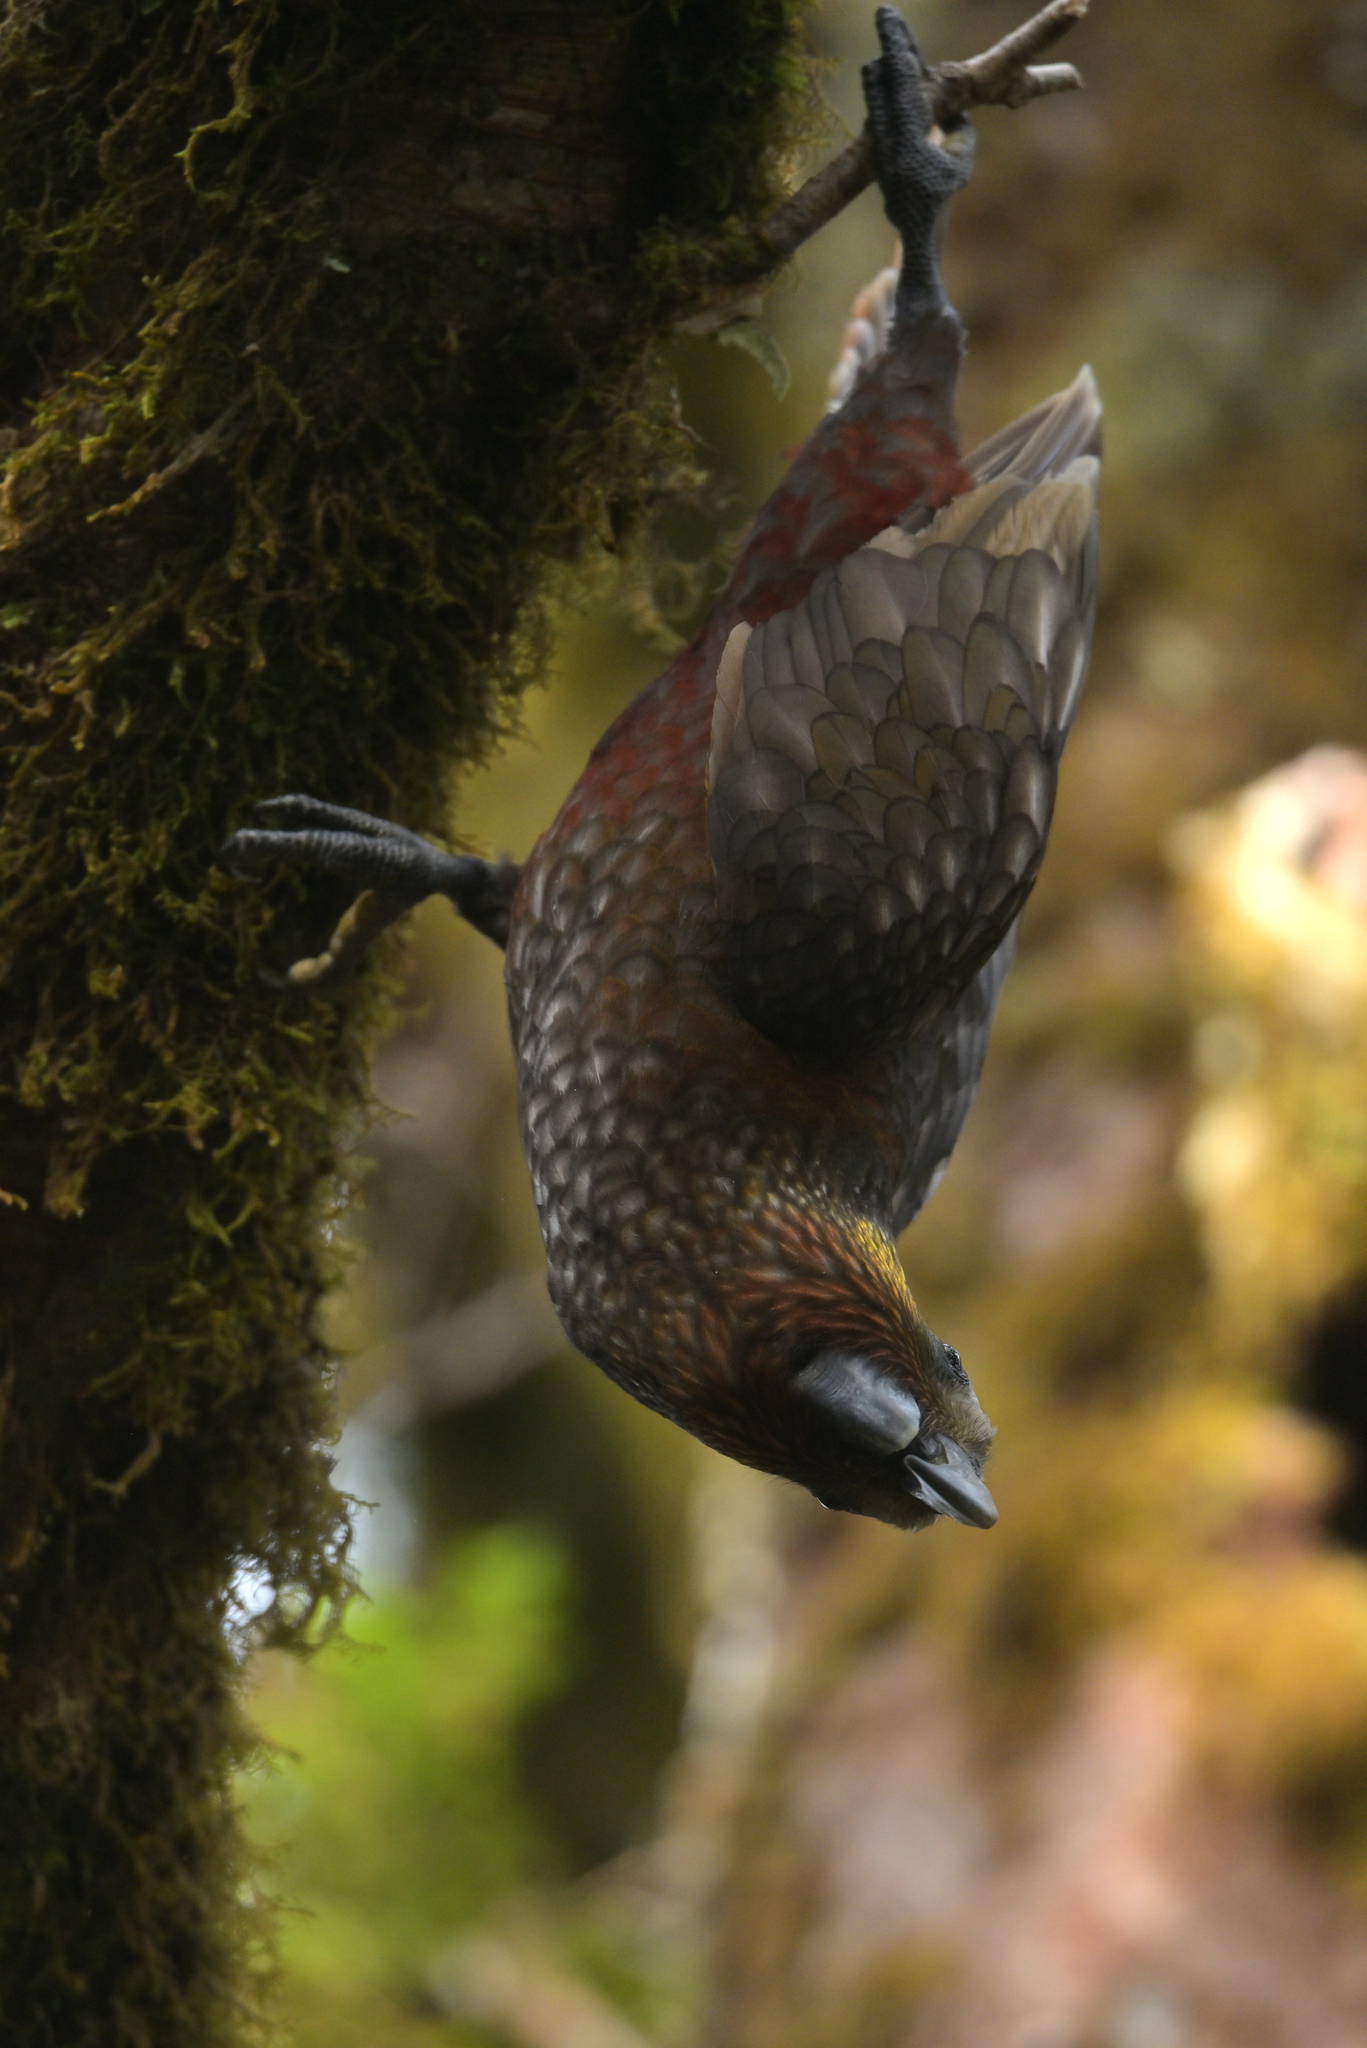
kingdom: Animalia
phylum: Chordata
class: Aves
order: Psittaciformes
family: Psittacidae
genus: Nestor
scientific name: Nestor meridionalis
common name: New zealand kaka
